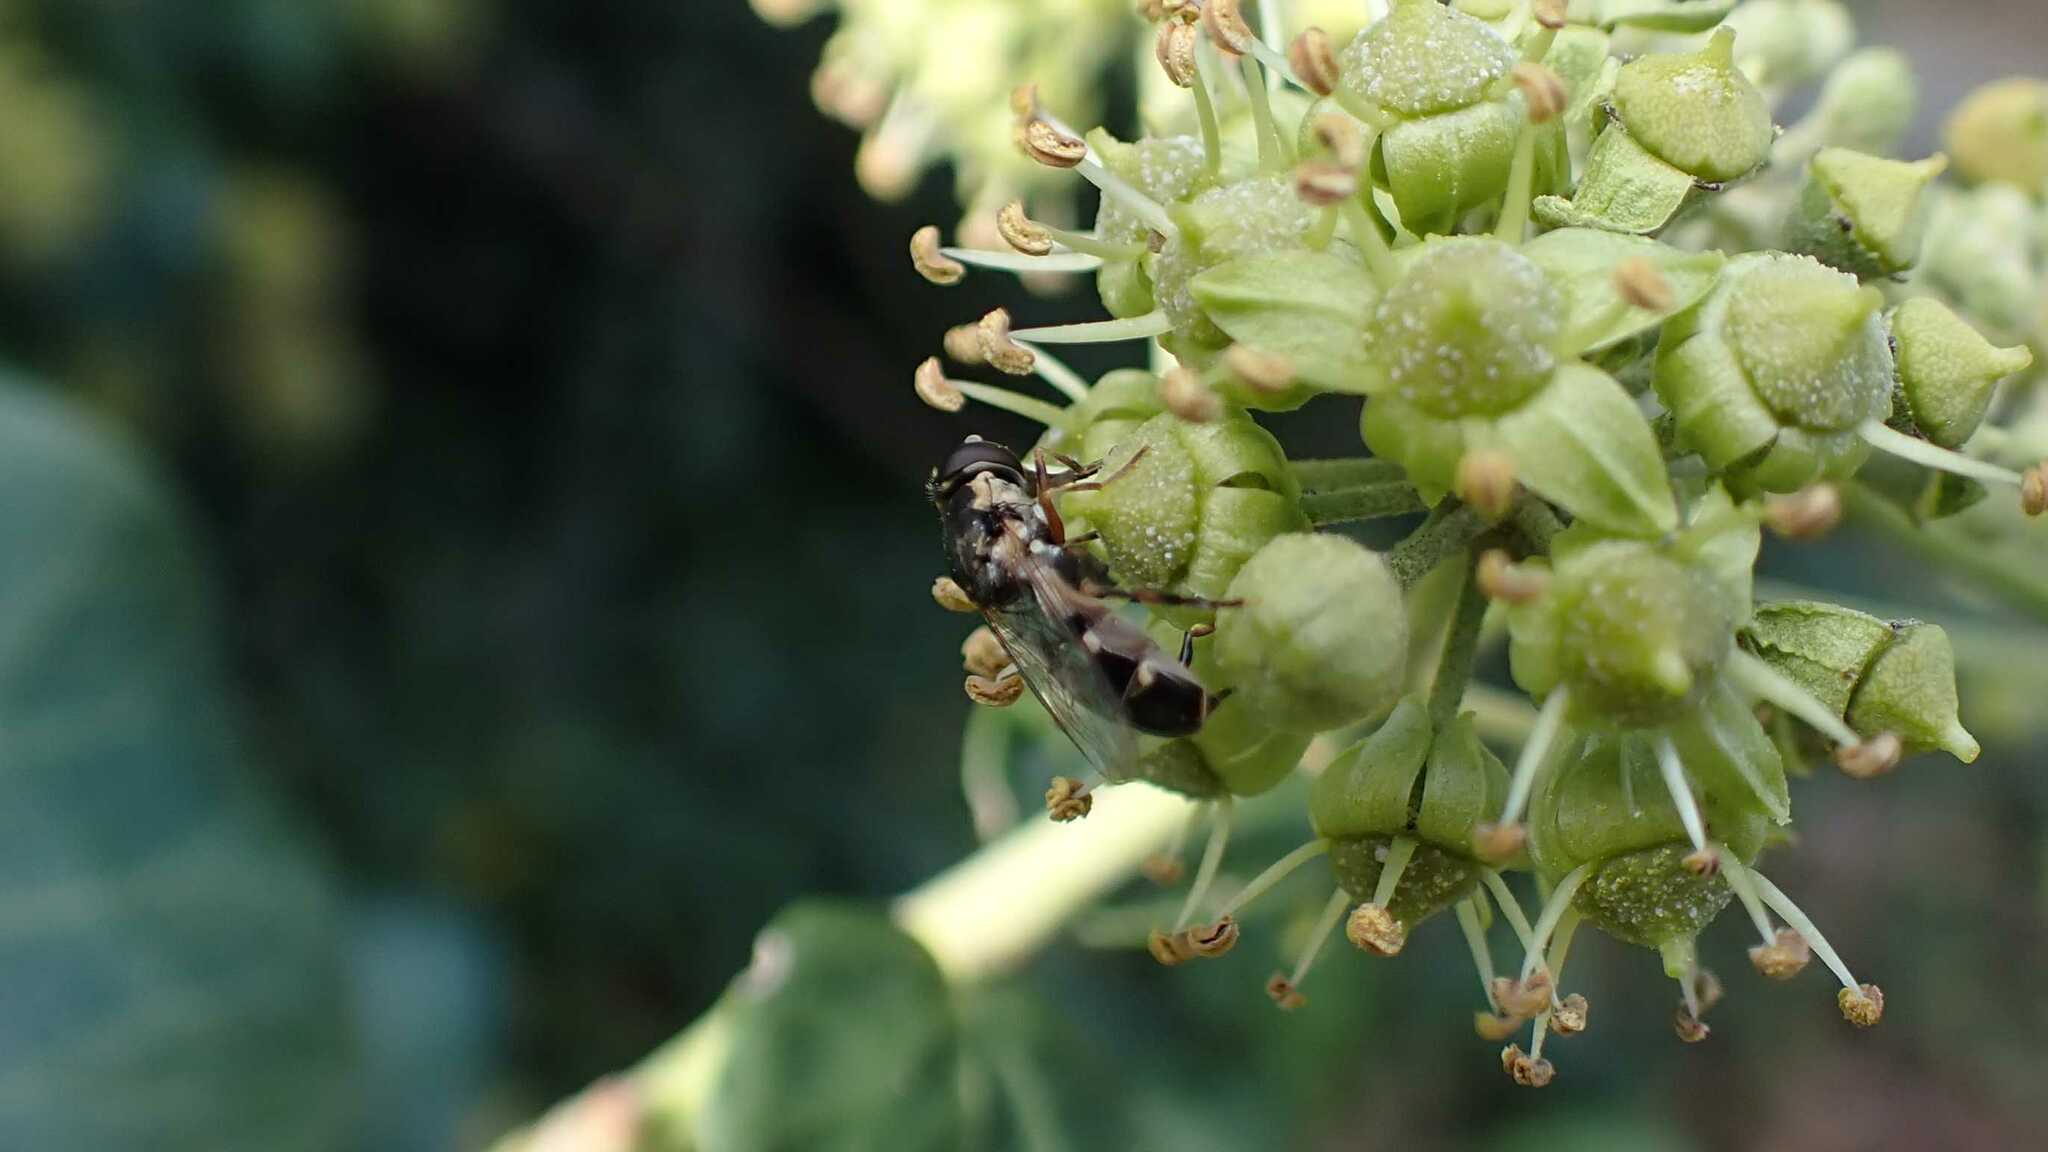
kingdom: Animalia
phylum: Arthropoda
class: Insecta
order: Diptera
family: Syrphidae
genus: Syritta
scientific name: Syritta pipiens
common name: Hover fly
